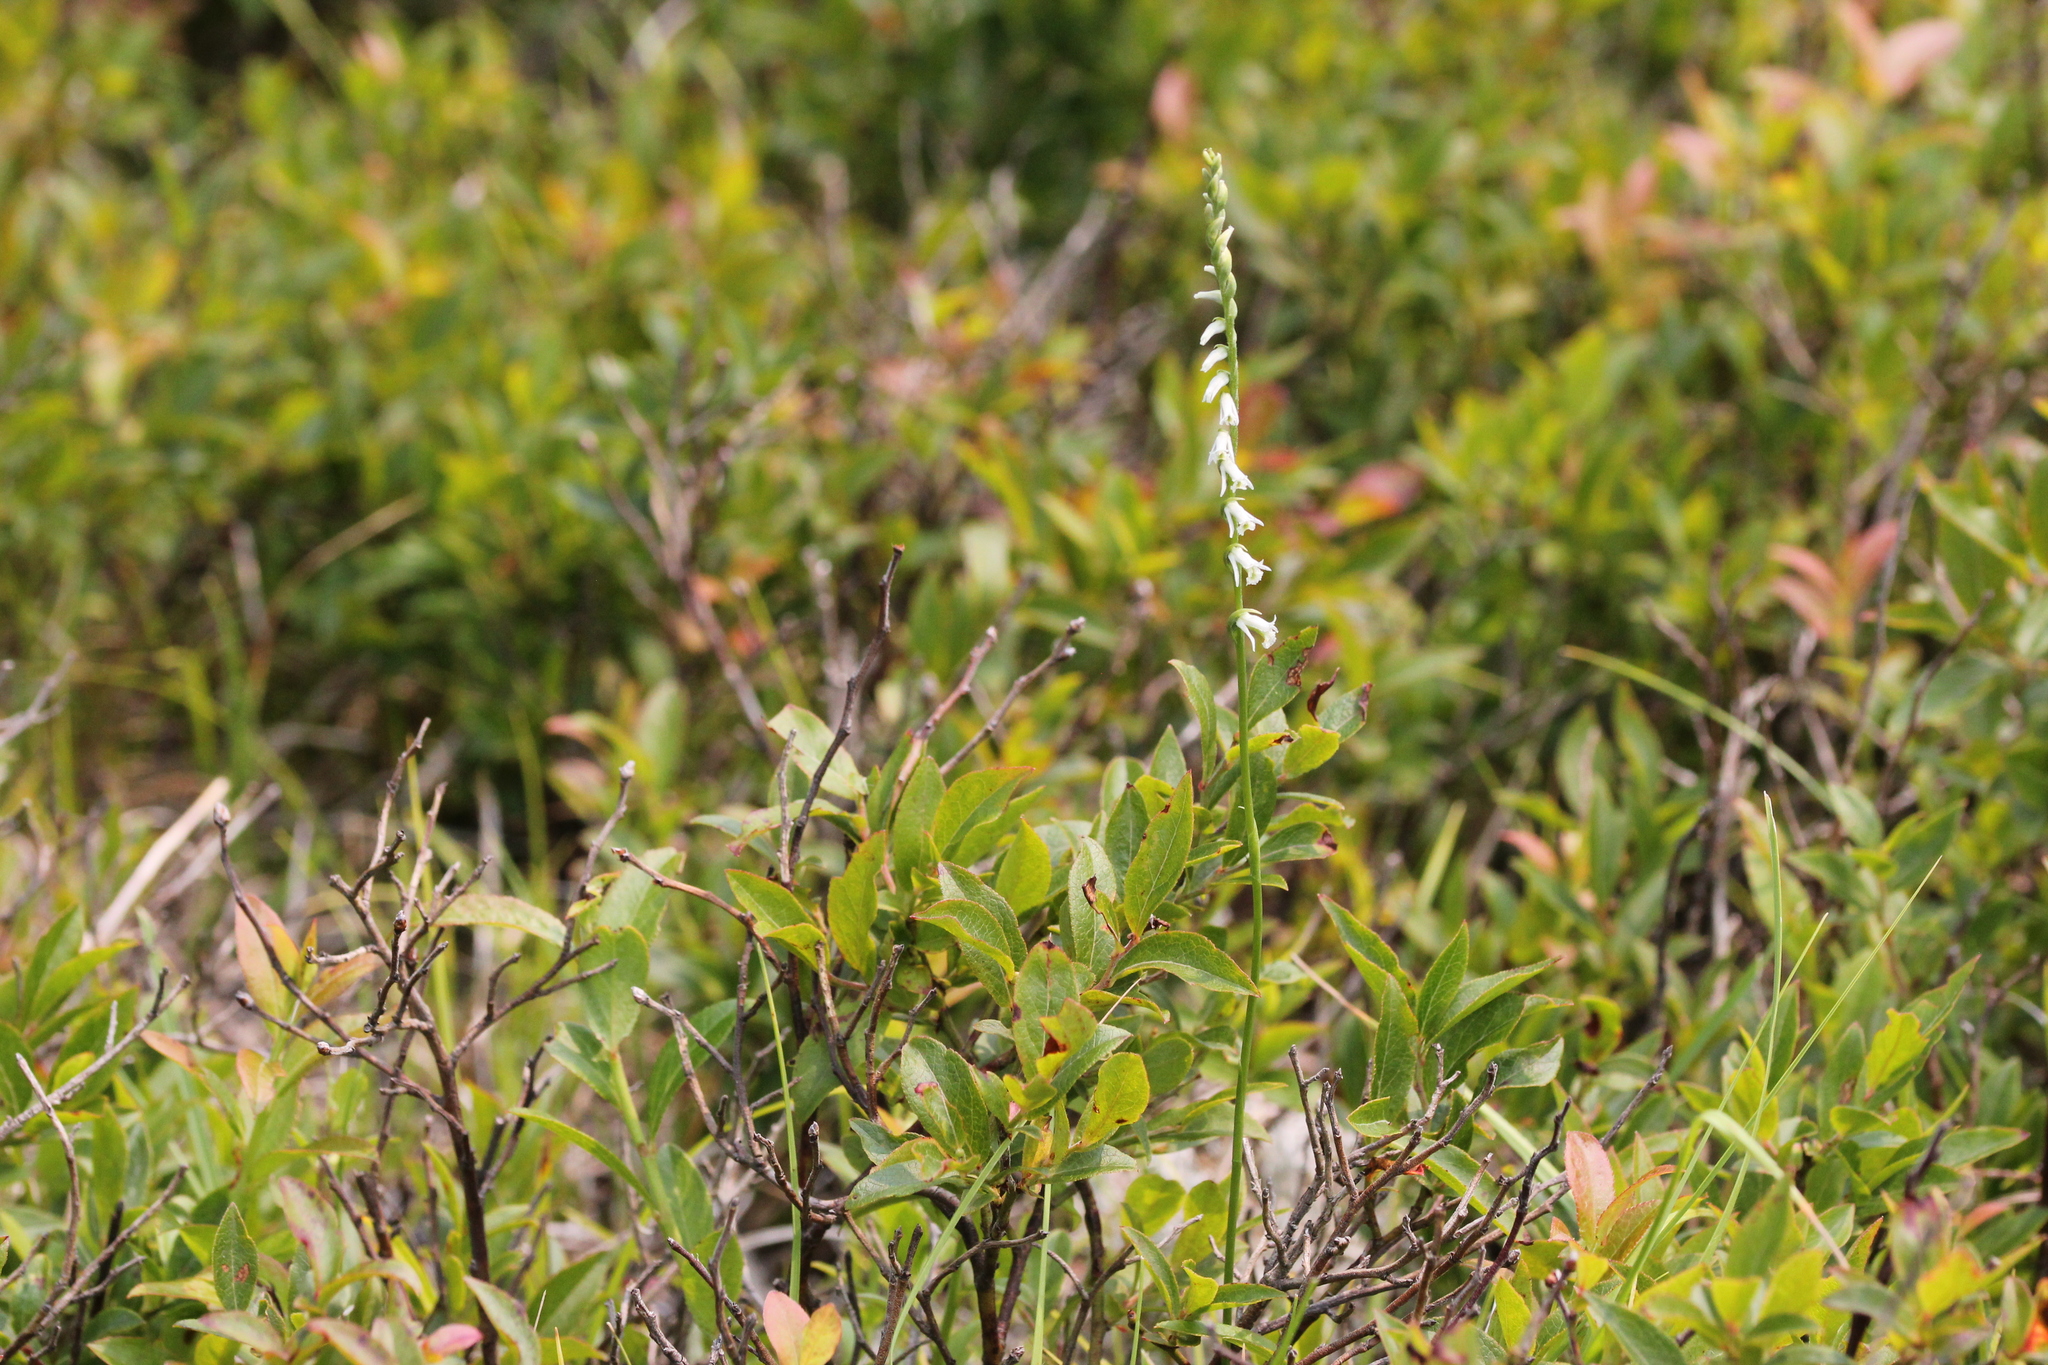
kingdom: Plantae
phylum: Tracheophyta
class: Liliopsida
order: Asparagales
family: Orchidaceae
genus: Spiranthes
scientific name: Spiranthes lacera
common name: Northern slender ladies'-tresses
